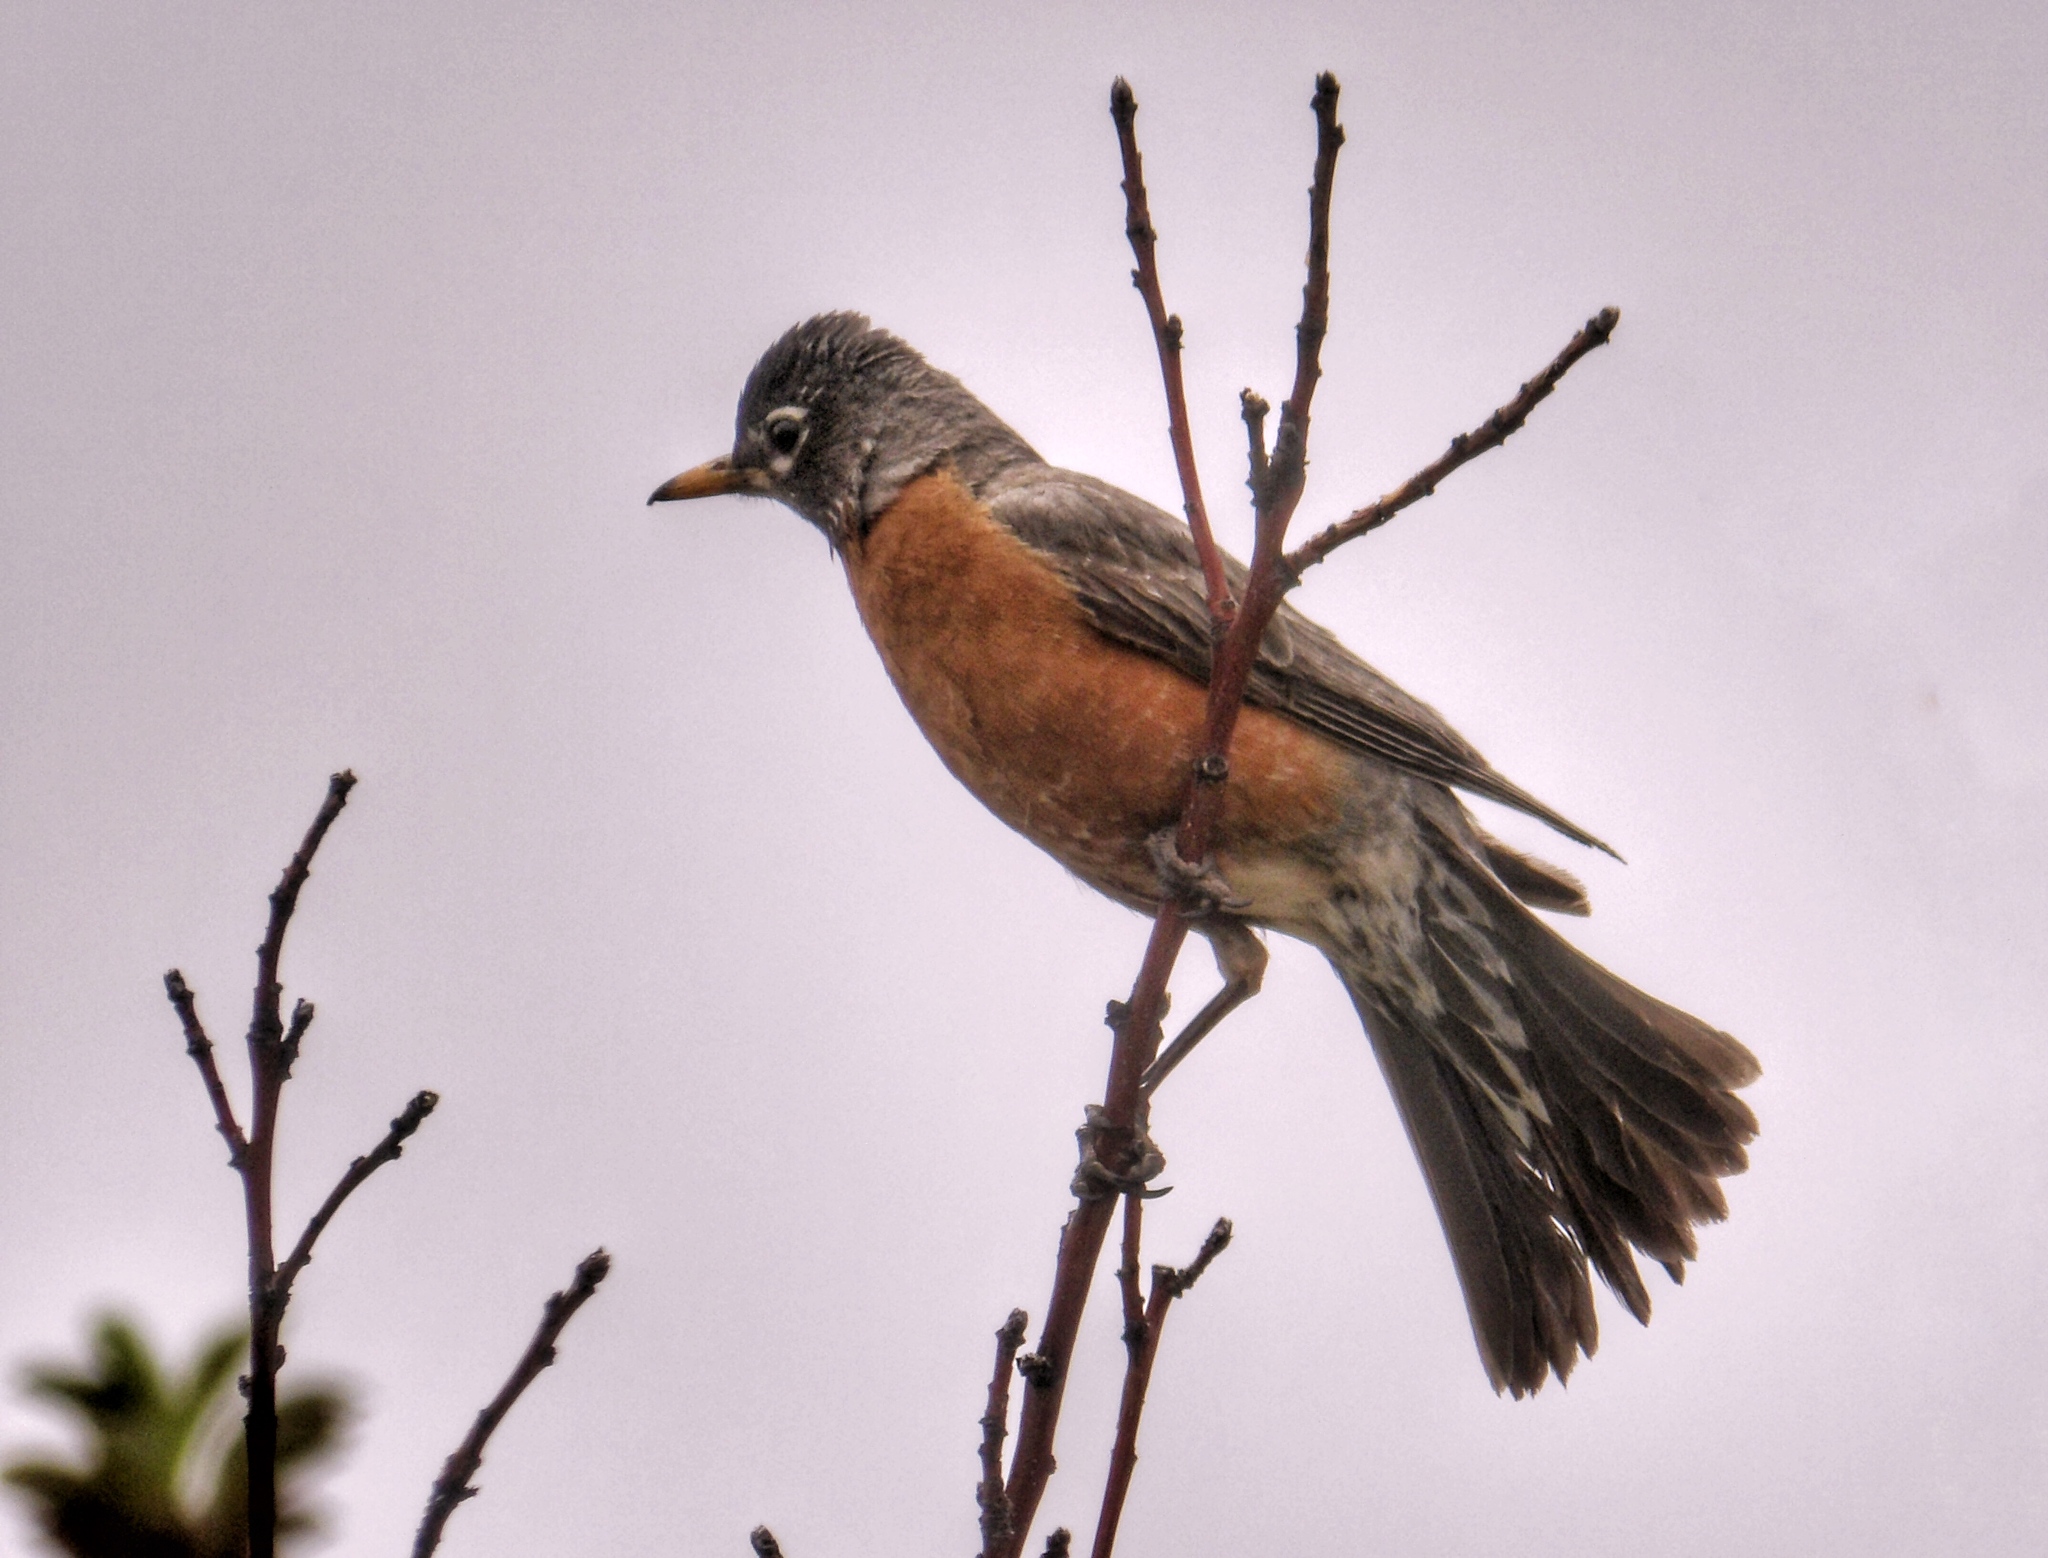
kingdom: Animalia
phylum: Chordata
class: Aves
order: Passeriformes
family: Turdidae
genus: Turdus
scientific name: Turdus migratorius
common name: American robin
